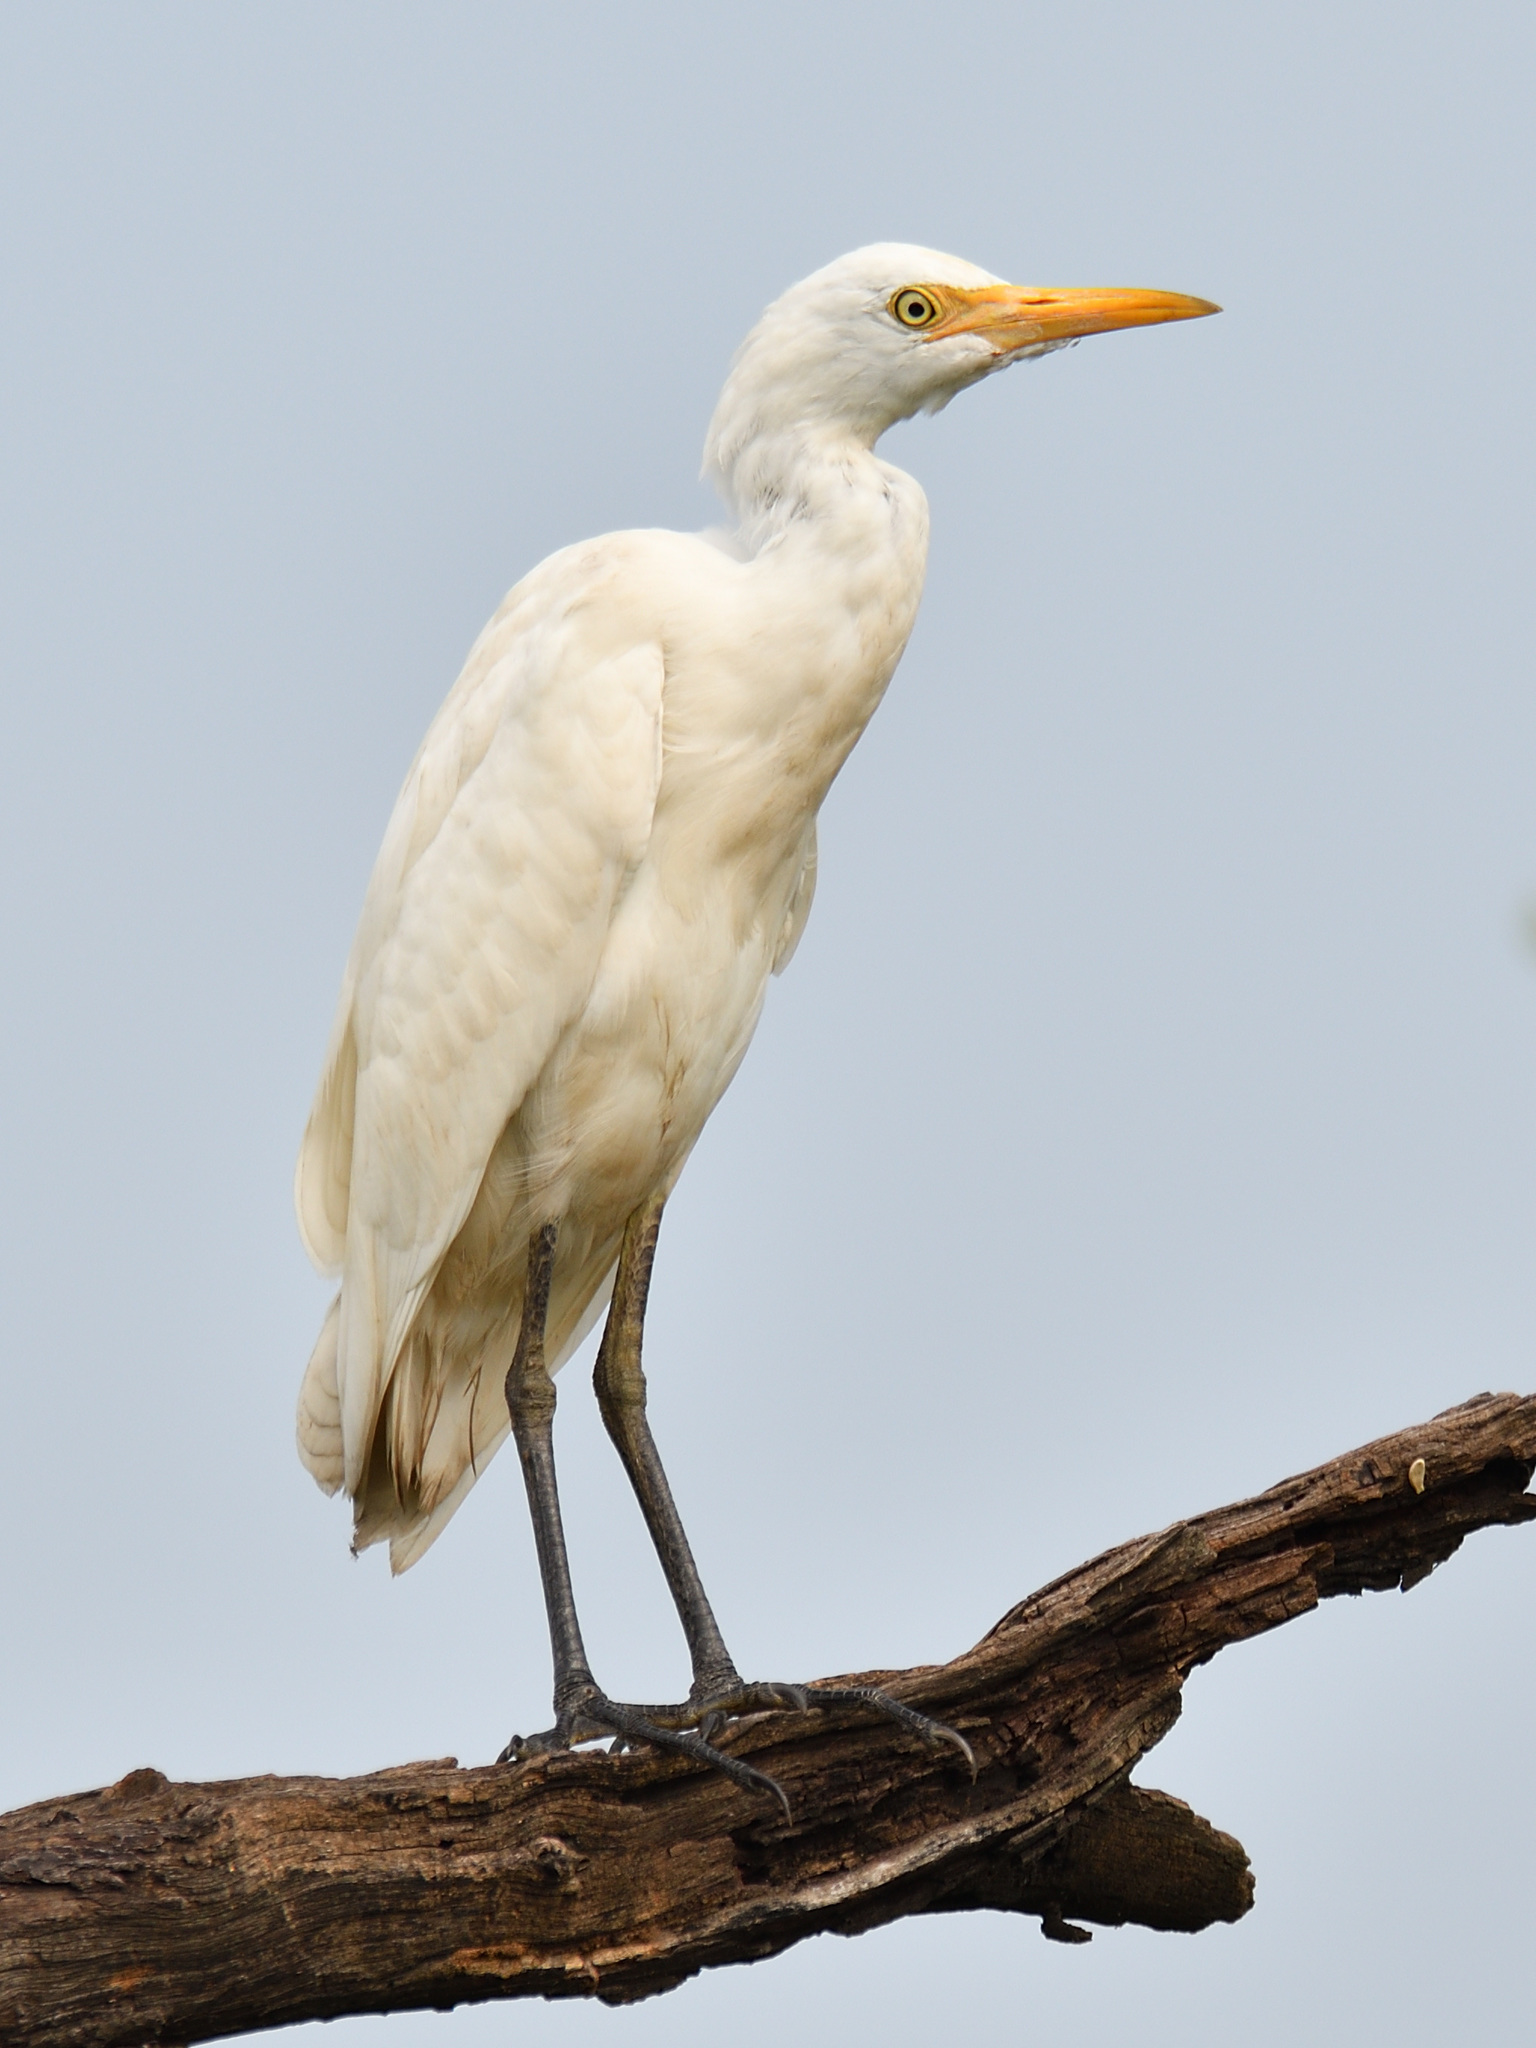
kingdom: Animalia
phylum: Chordata
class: Aves
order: Pelecaniformes
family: Ardeidae
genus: Bubulcus
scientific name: Bubulcus coromandus
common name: Eastern cattle egret
